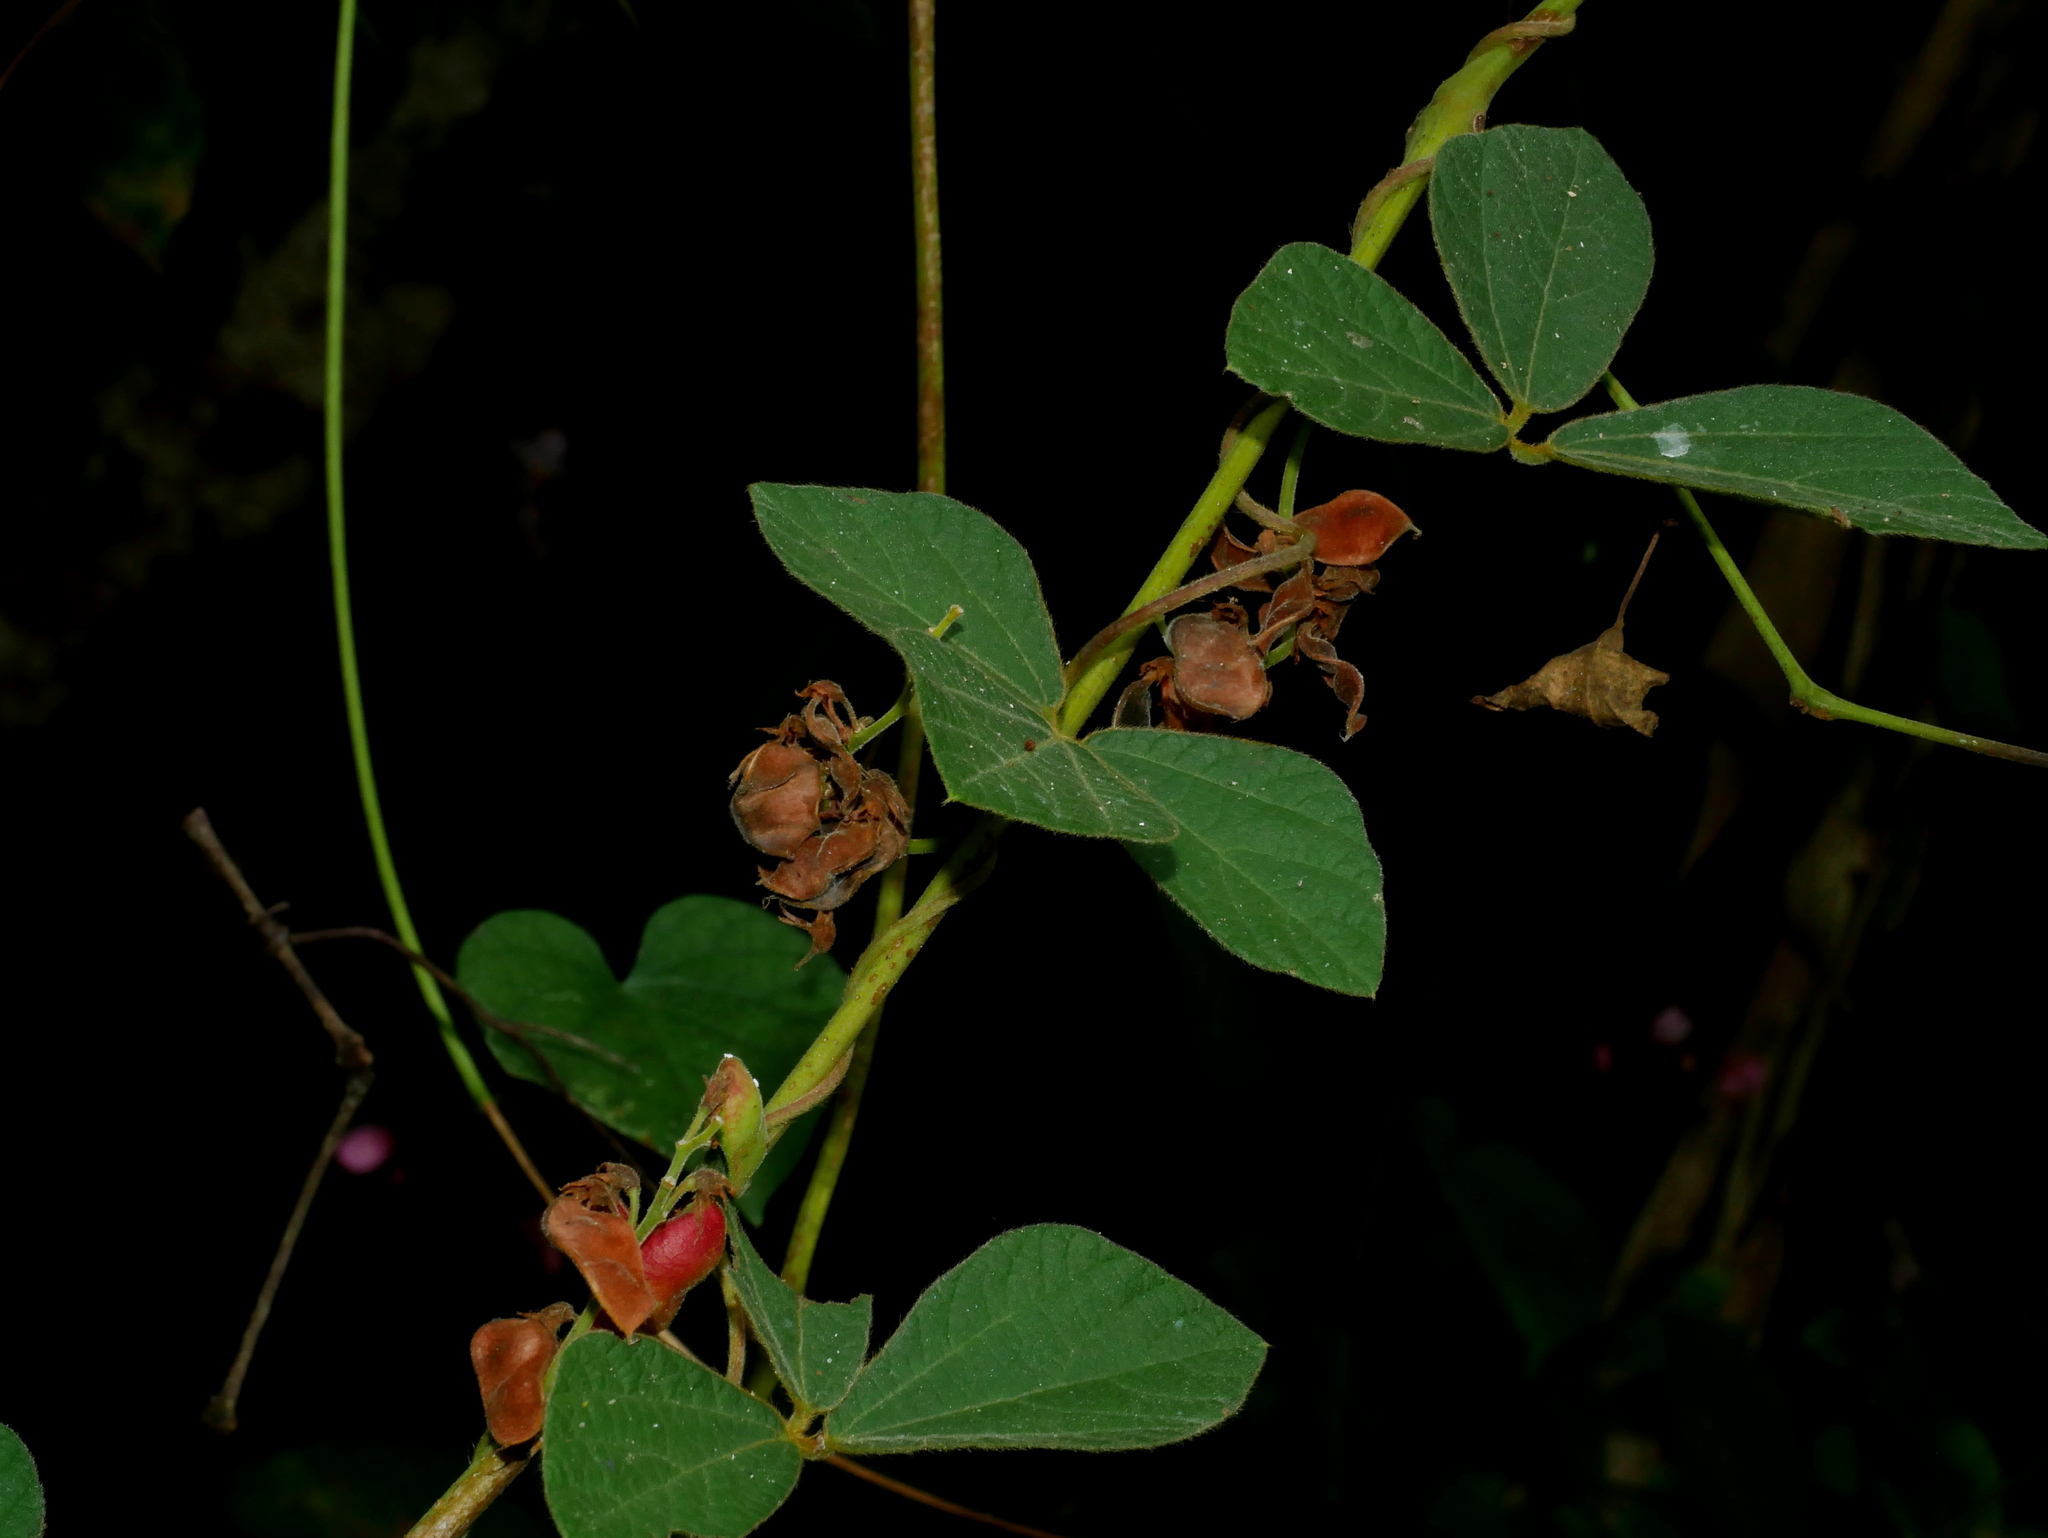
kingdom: Plantae
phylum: Tracheophyta
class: Magnoliopsida
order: Fabales
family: Fabaceae
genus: Rhynchosia
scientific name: Rhynchosia volubilis
